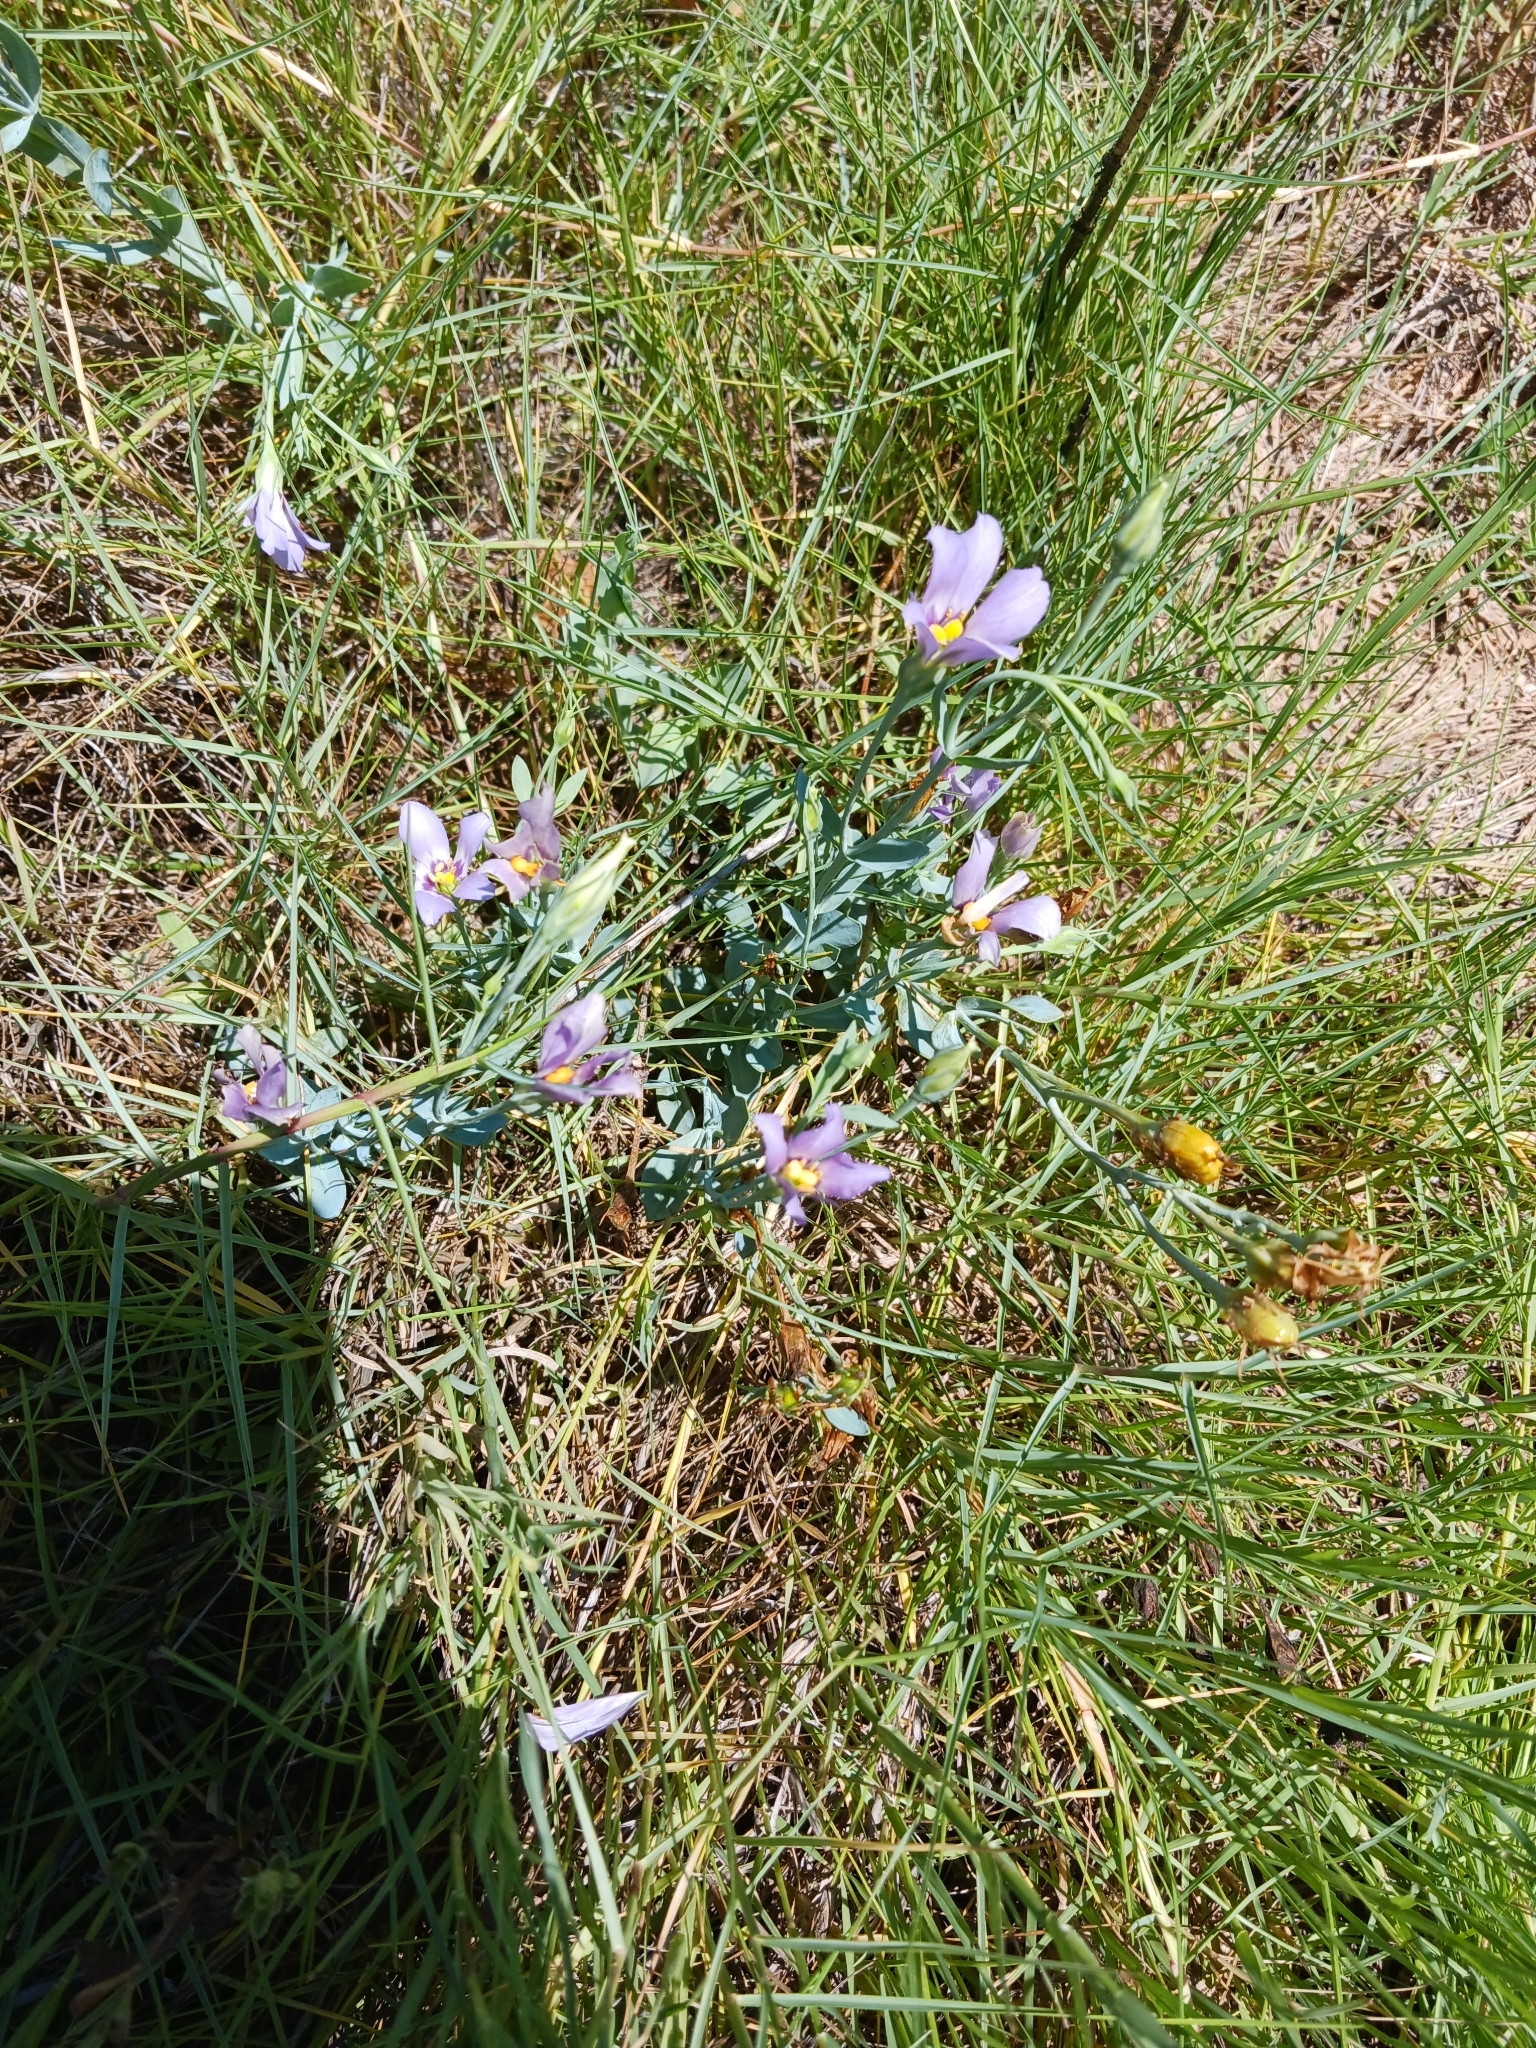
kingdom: Plantae
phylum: Tracheophyta
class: Magnoliopsida
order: Gentianales
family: Gentianaceae
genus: Eustoma
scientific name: Eustoma exaltatum
